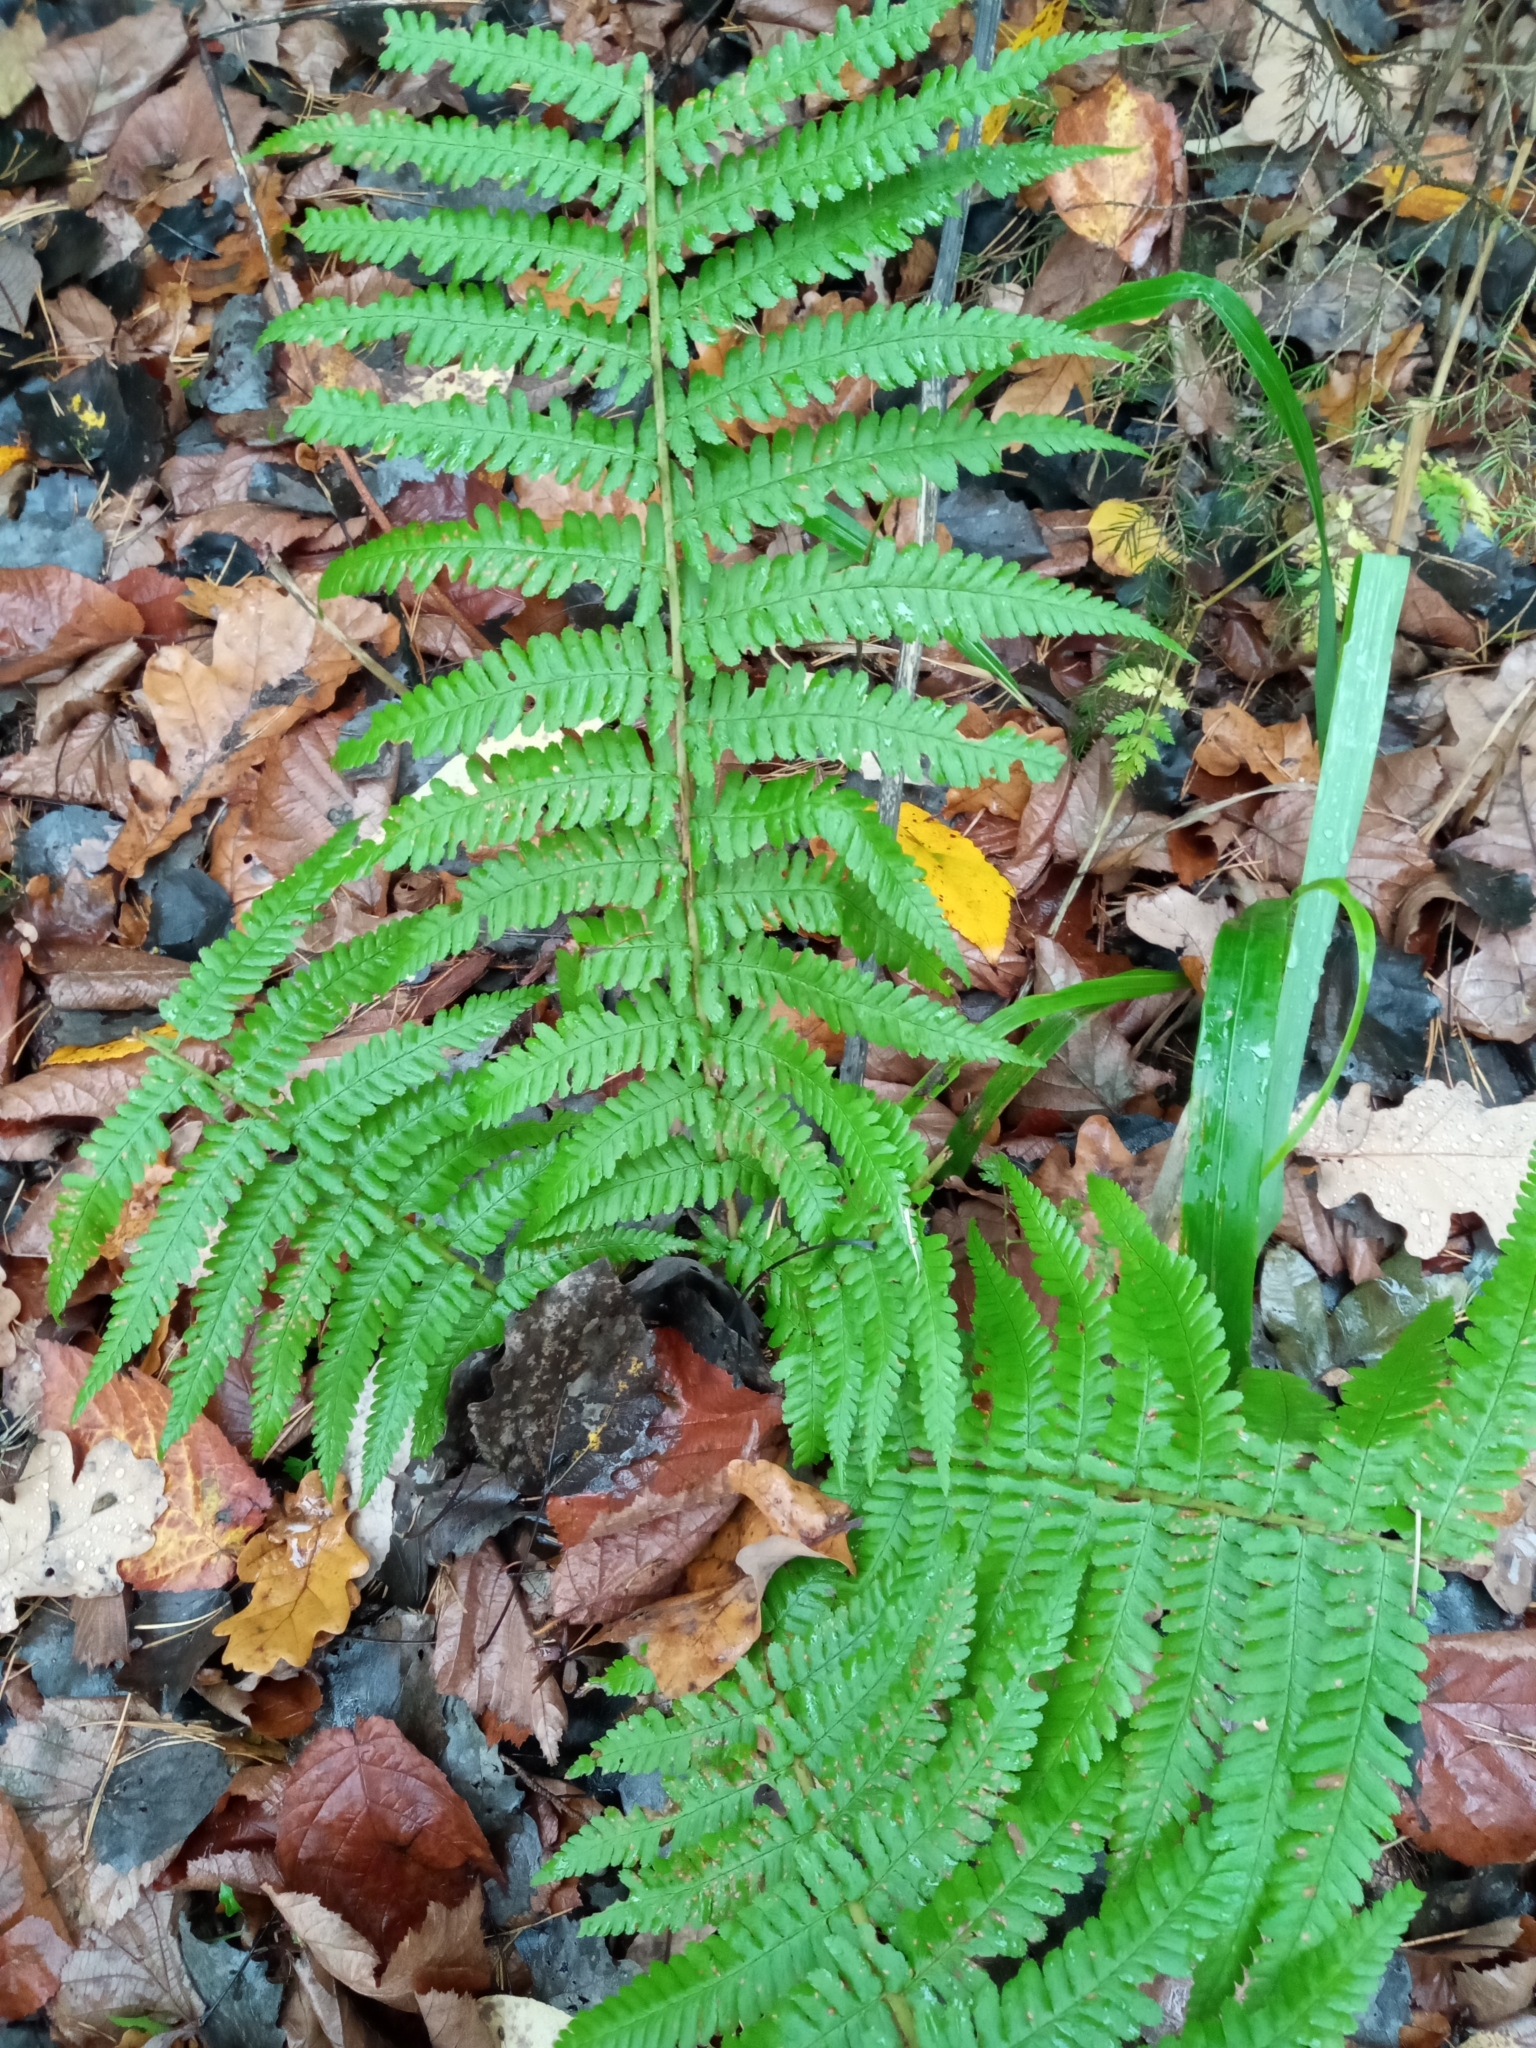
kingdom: Plantae
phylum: Tracheophyta
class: Polypodiopsida
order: Polypodiales
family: Dryopteridaceae
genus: Dryopteris
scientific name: Dryopteris filix-mas
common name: Male fern
